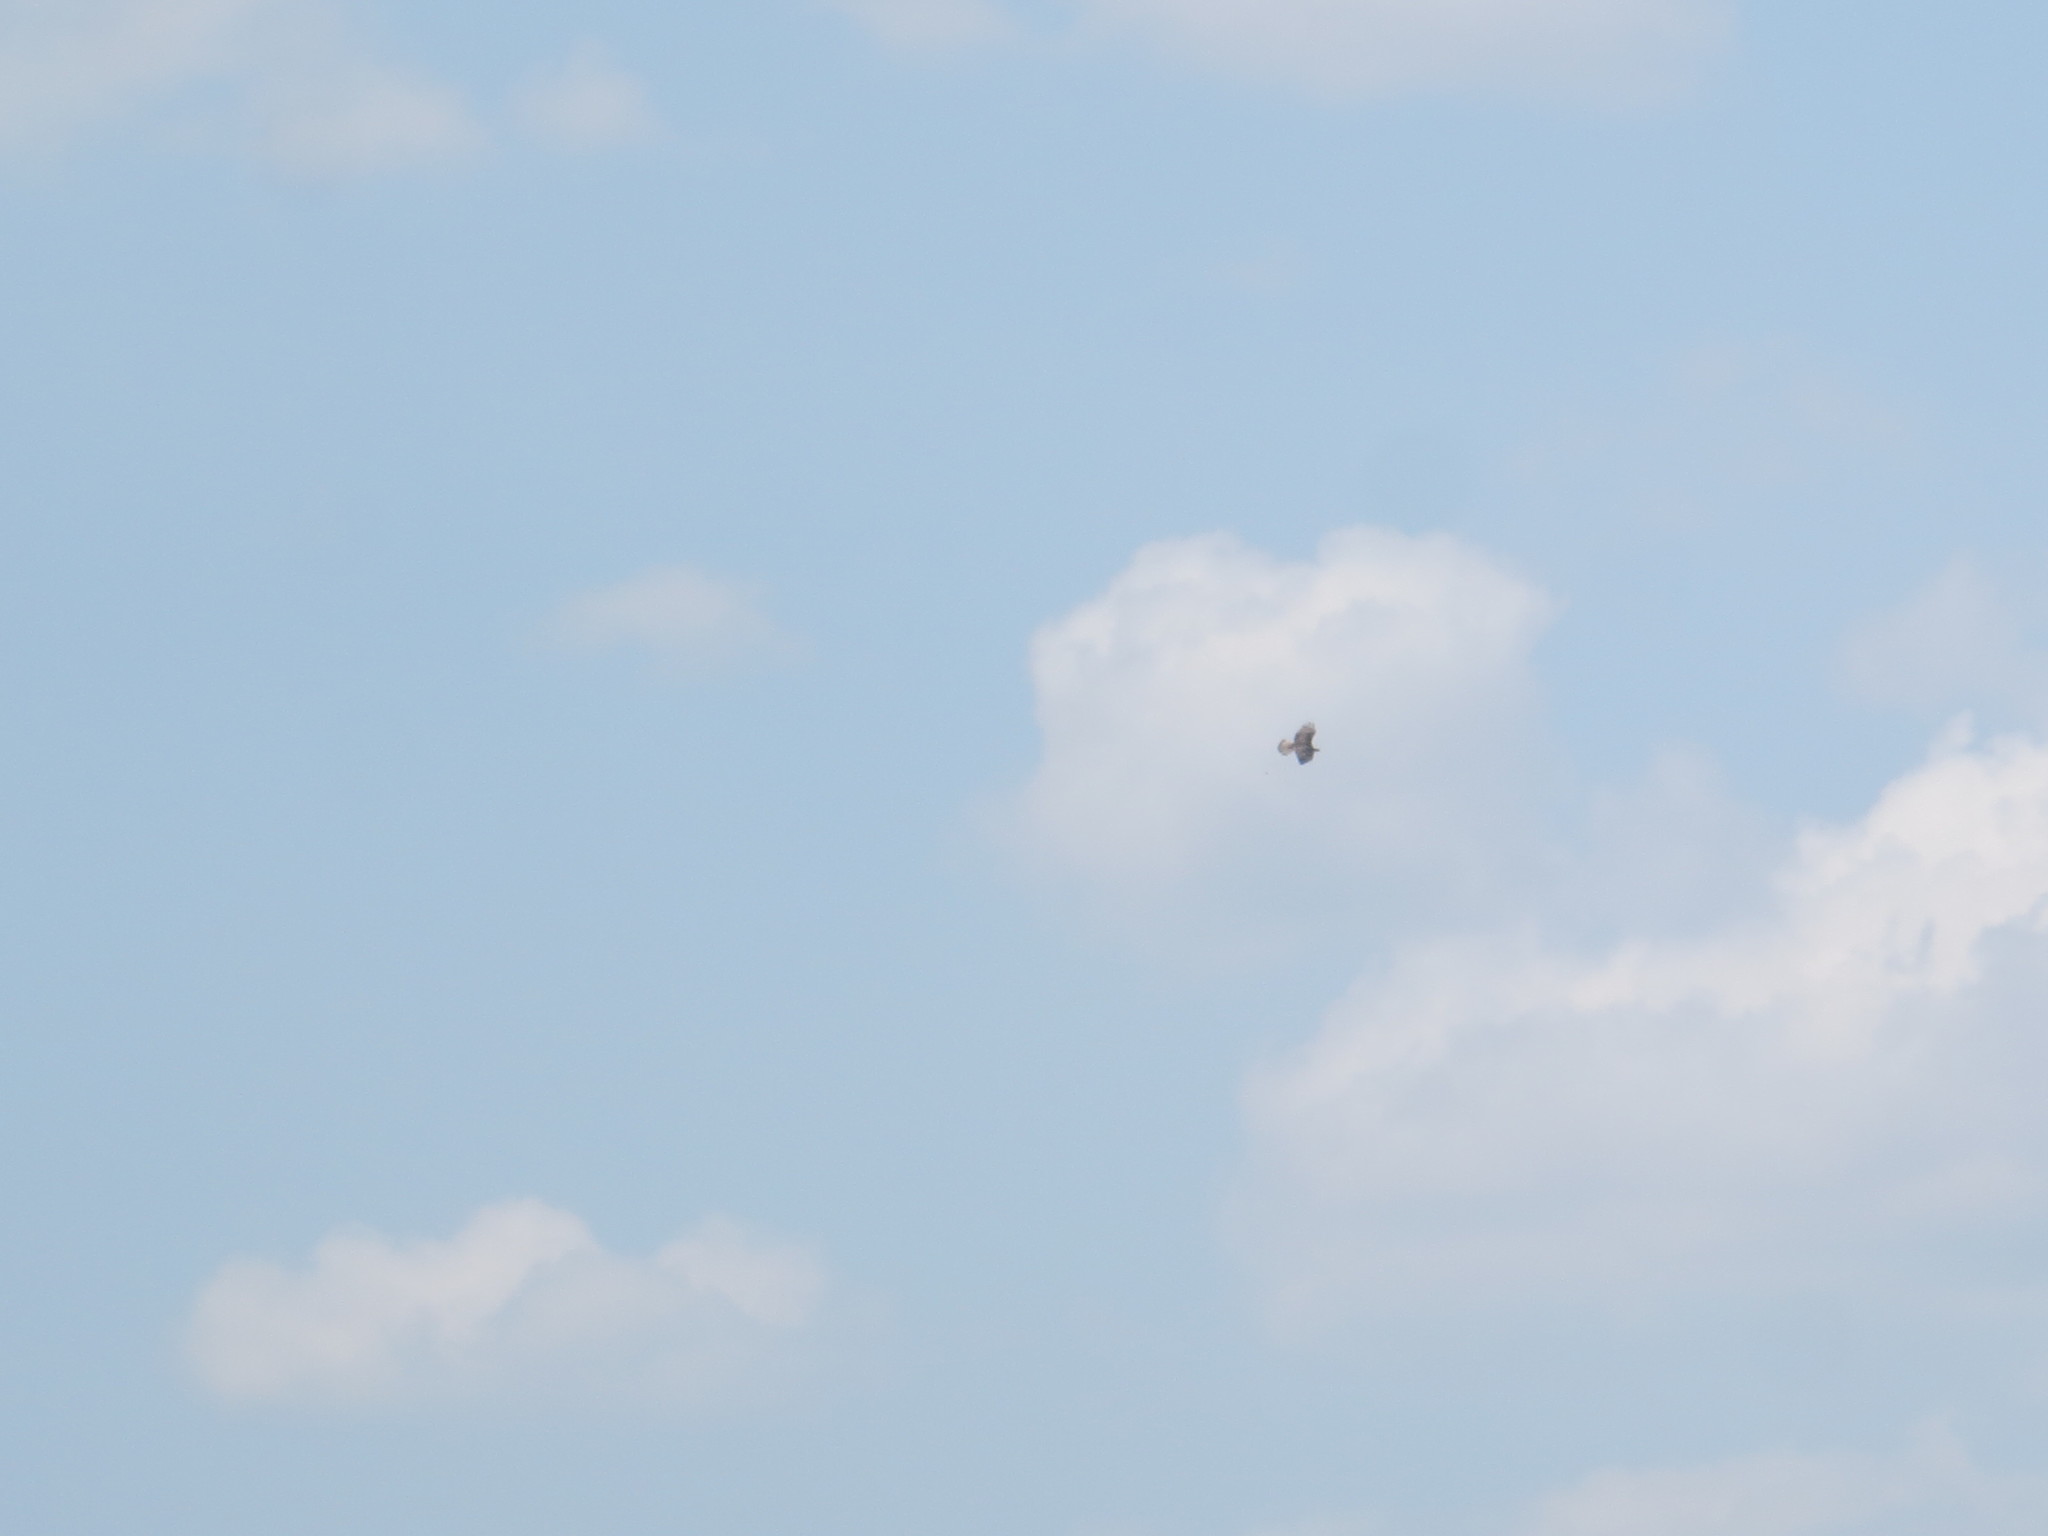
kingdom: Animalia
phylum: Chordata
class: Aves
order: Accipitriformes
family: Pandionidae
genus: Pandion
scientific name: Pandion haliaetus
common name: Osprey
